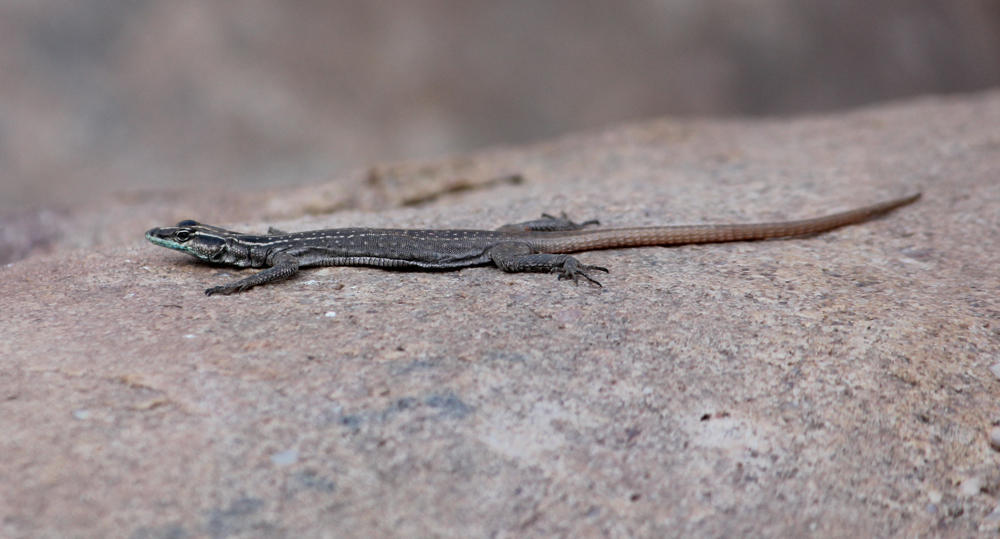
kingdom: Animalia
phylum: Chordata
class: Squamata
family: Cordylidae
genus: Platysaurus
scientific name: Platysaurus relictus
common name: Soutpansberg flat lizard
